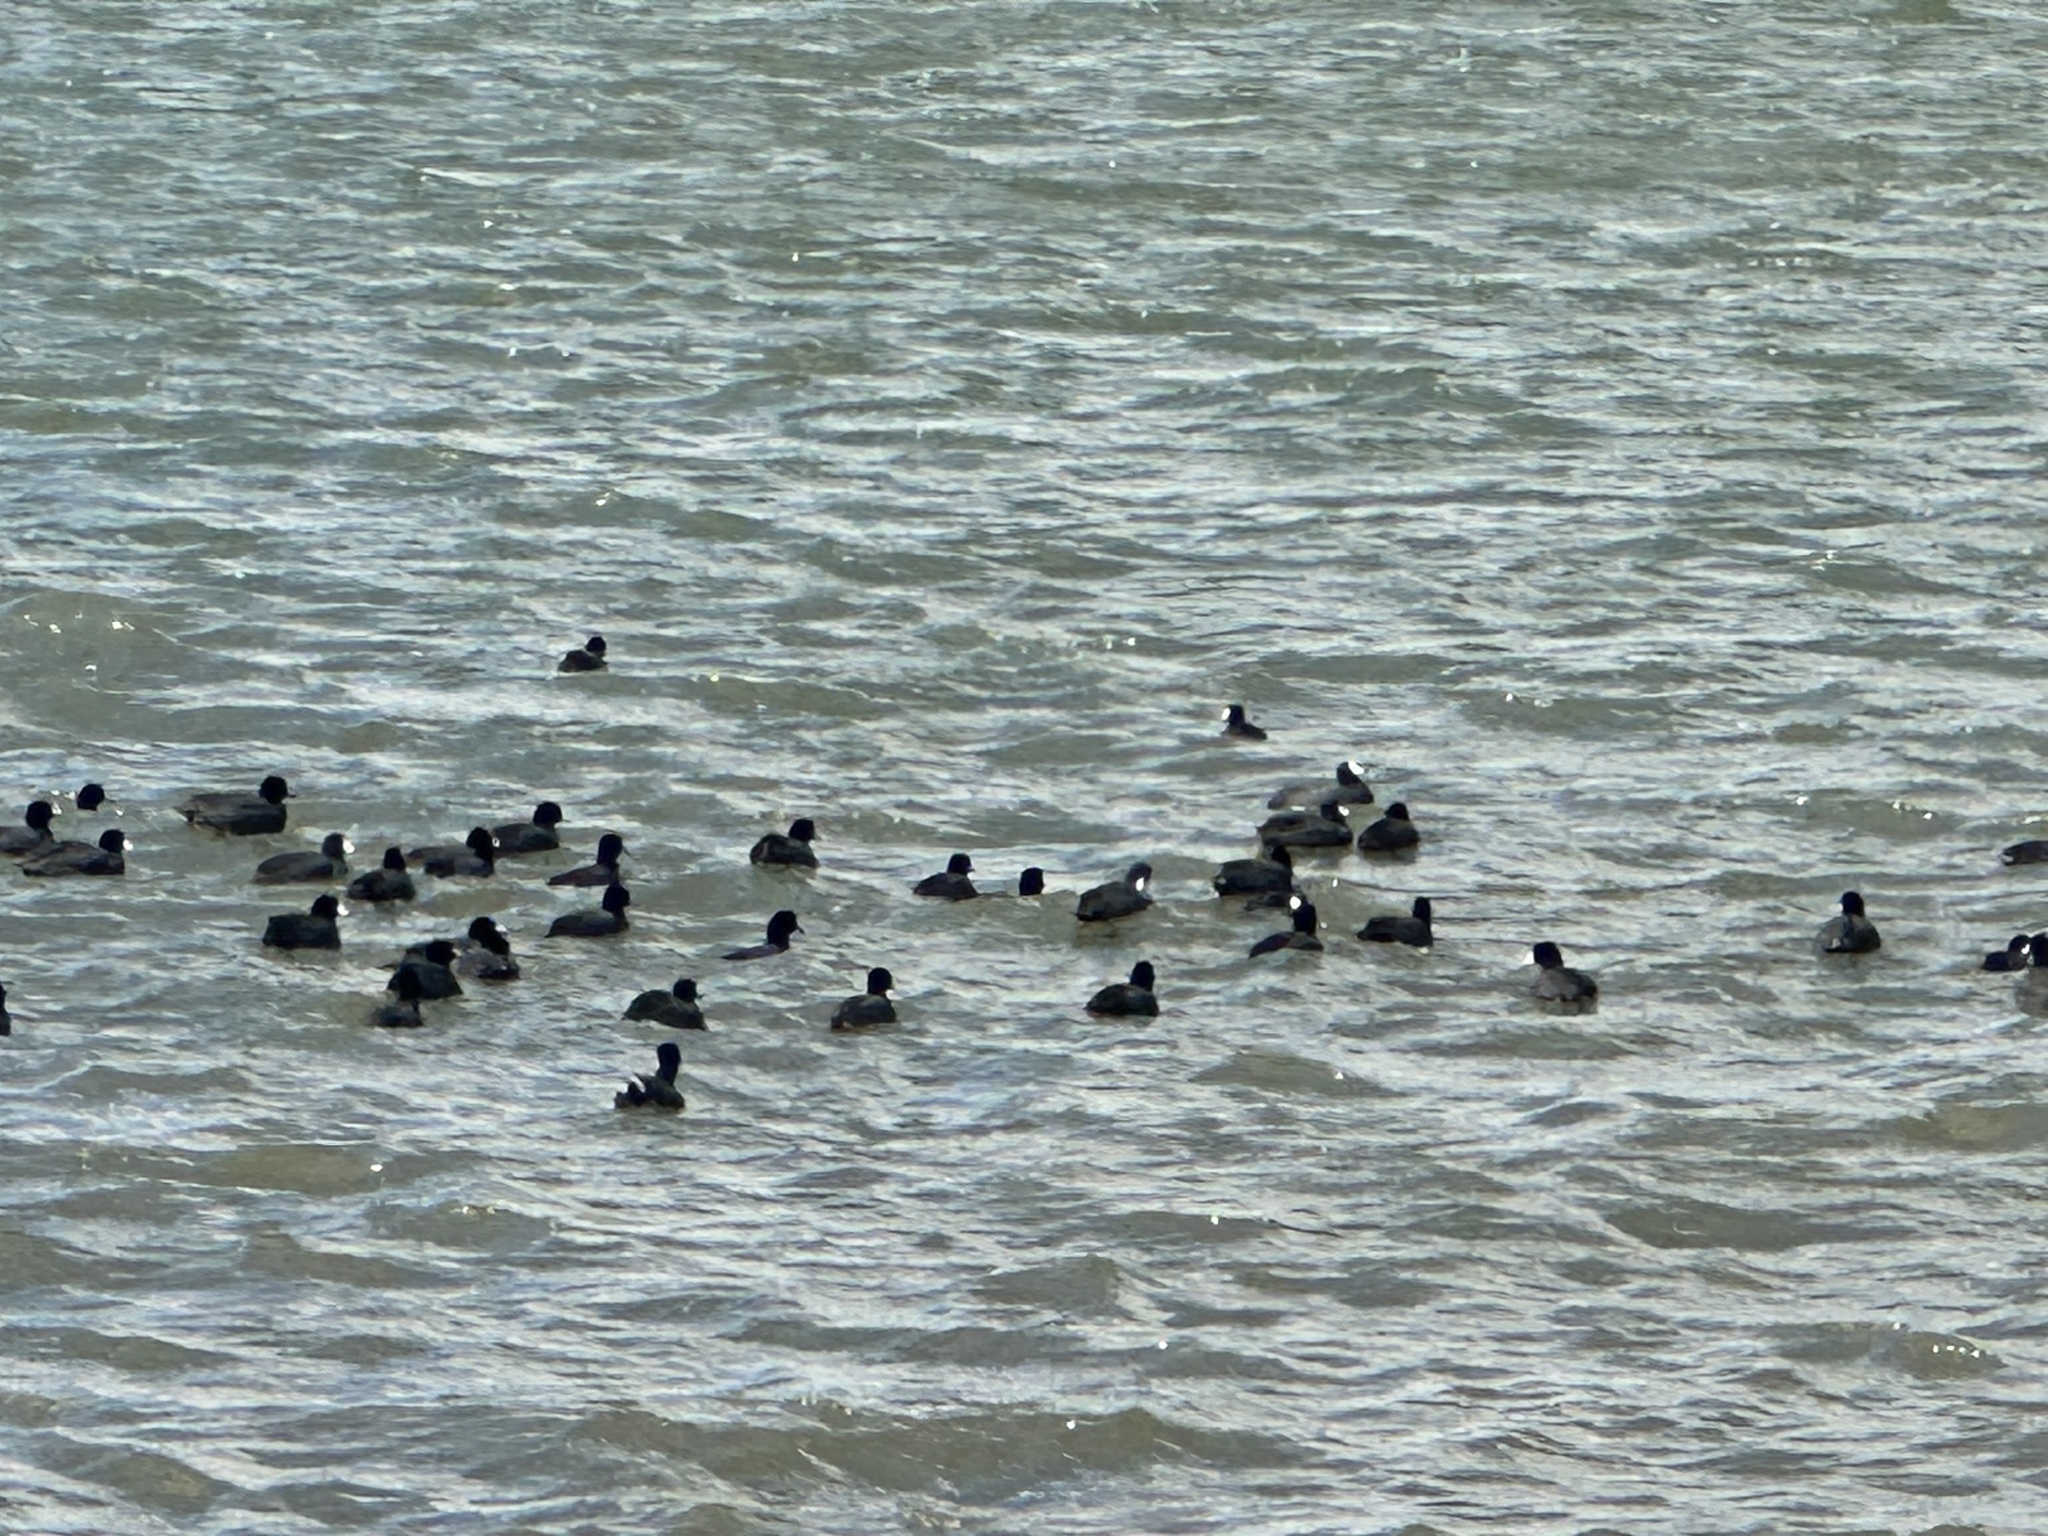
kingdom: Animalia
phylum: Chordata
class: Aves
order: Gruiformes
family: Rallidae
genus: Fulica
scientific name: Fulica americana
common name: American coot
